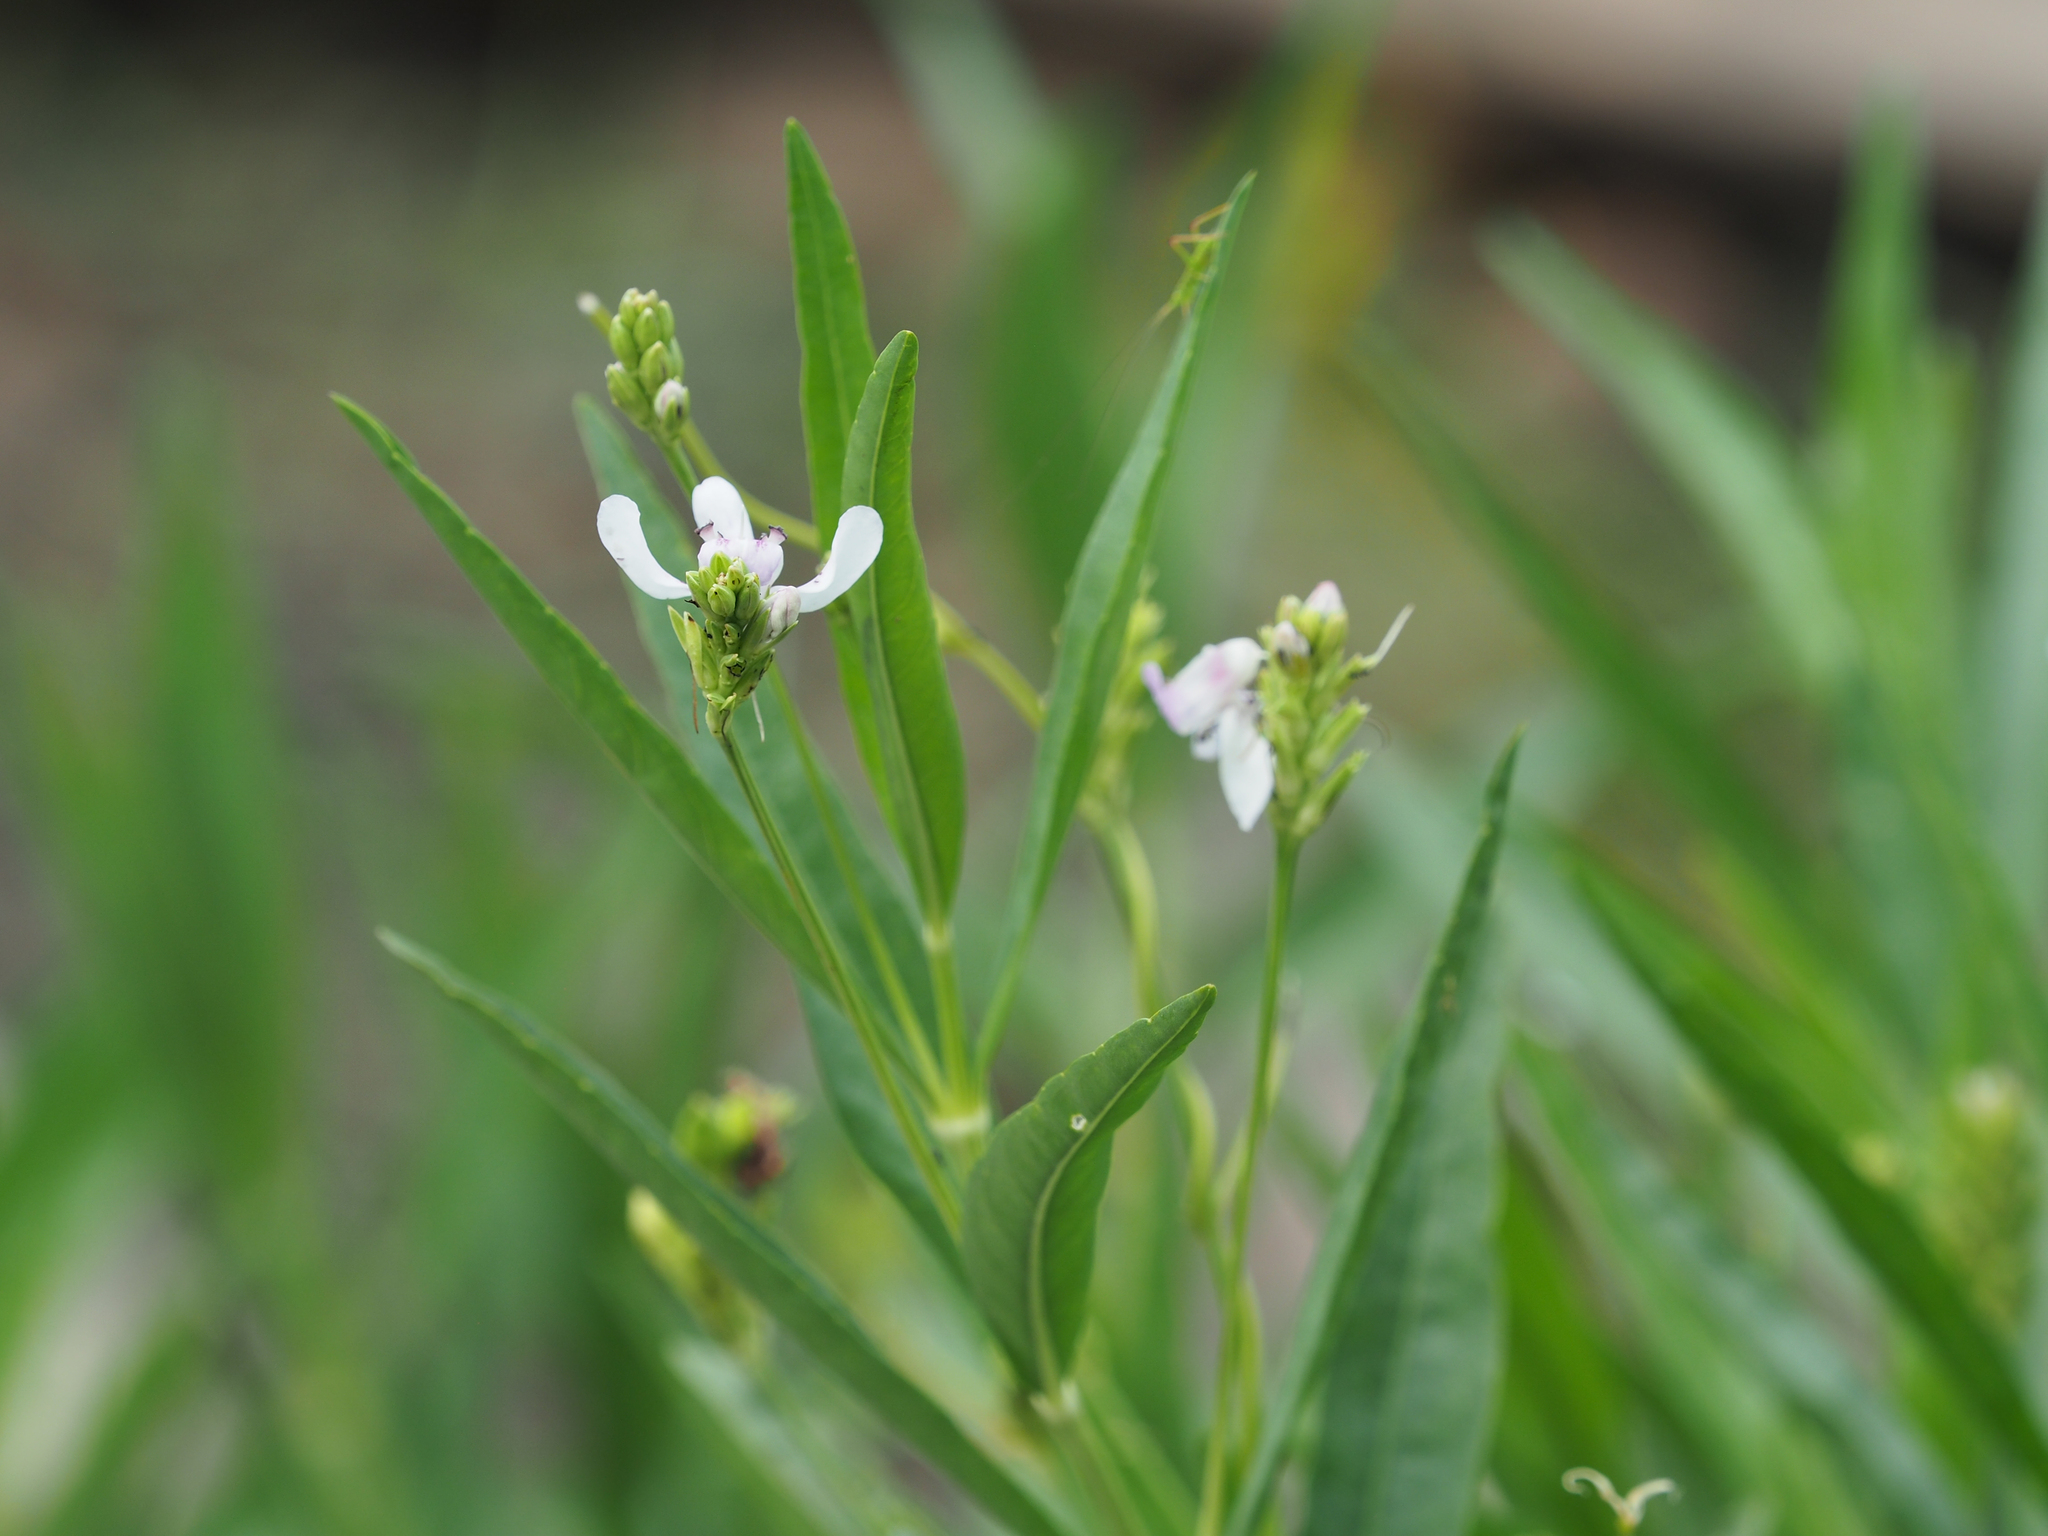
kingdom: Plantae
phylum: Tracheophyta
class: Magnoliopsida
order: Lamiales
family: Acanthaceae
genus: Dianthera
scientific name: Dianthera americana
